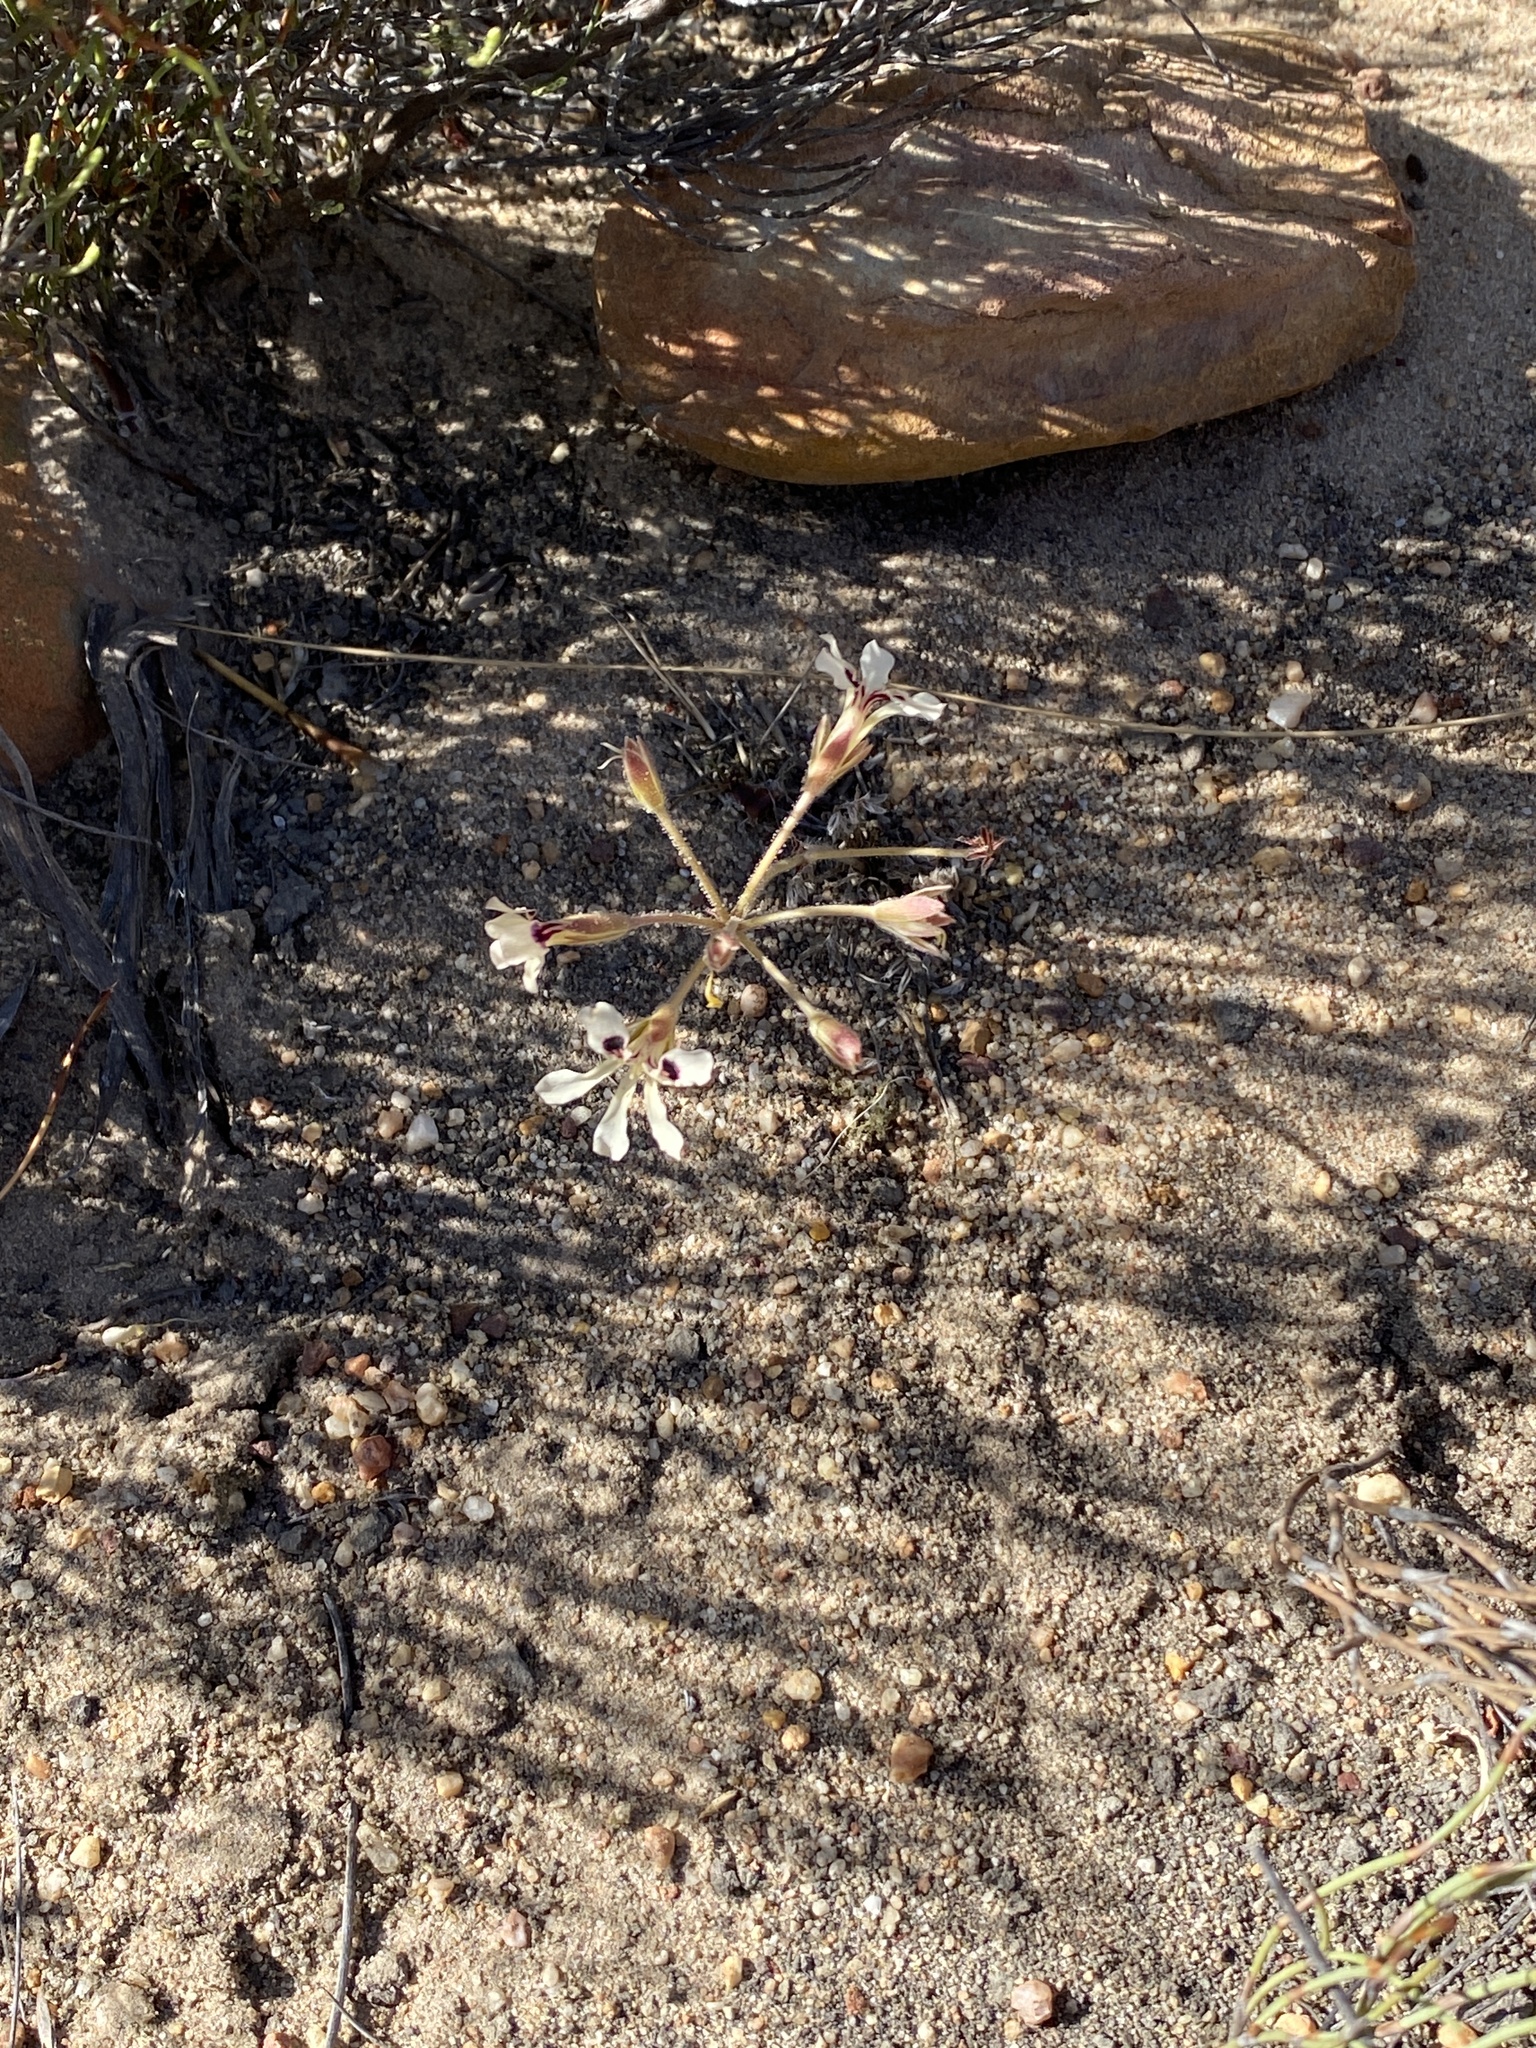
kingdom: Plantae
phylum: Tracheophyta
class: Magnoliopsida
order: Geraniales
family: Geraniaceae
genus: Pelargonium
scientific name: Pelargonium trifoliolatum
